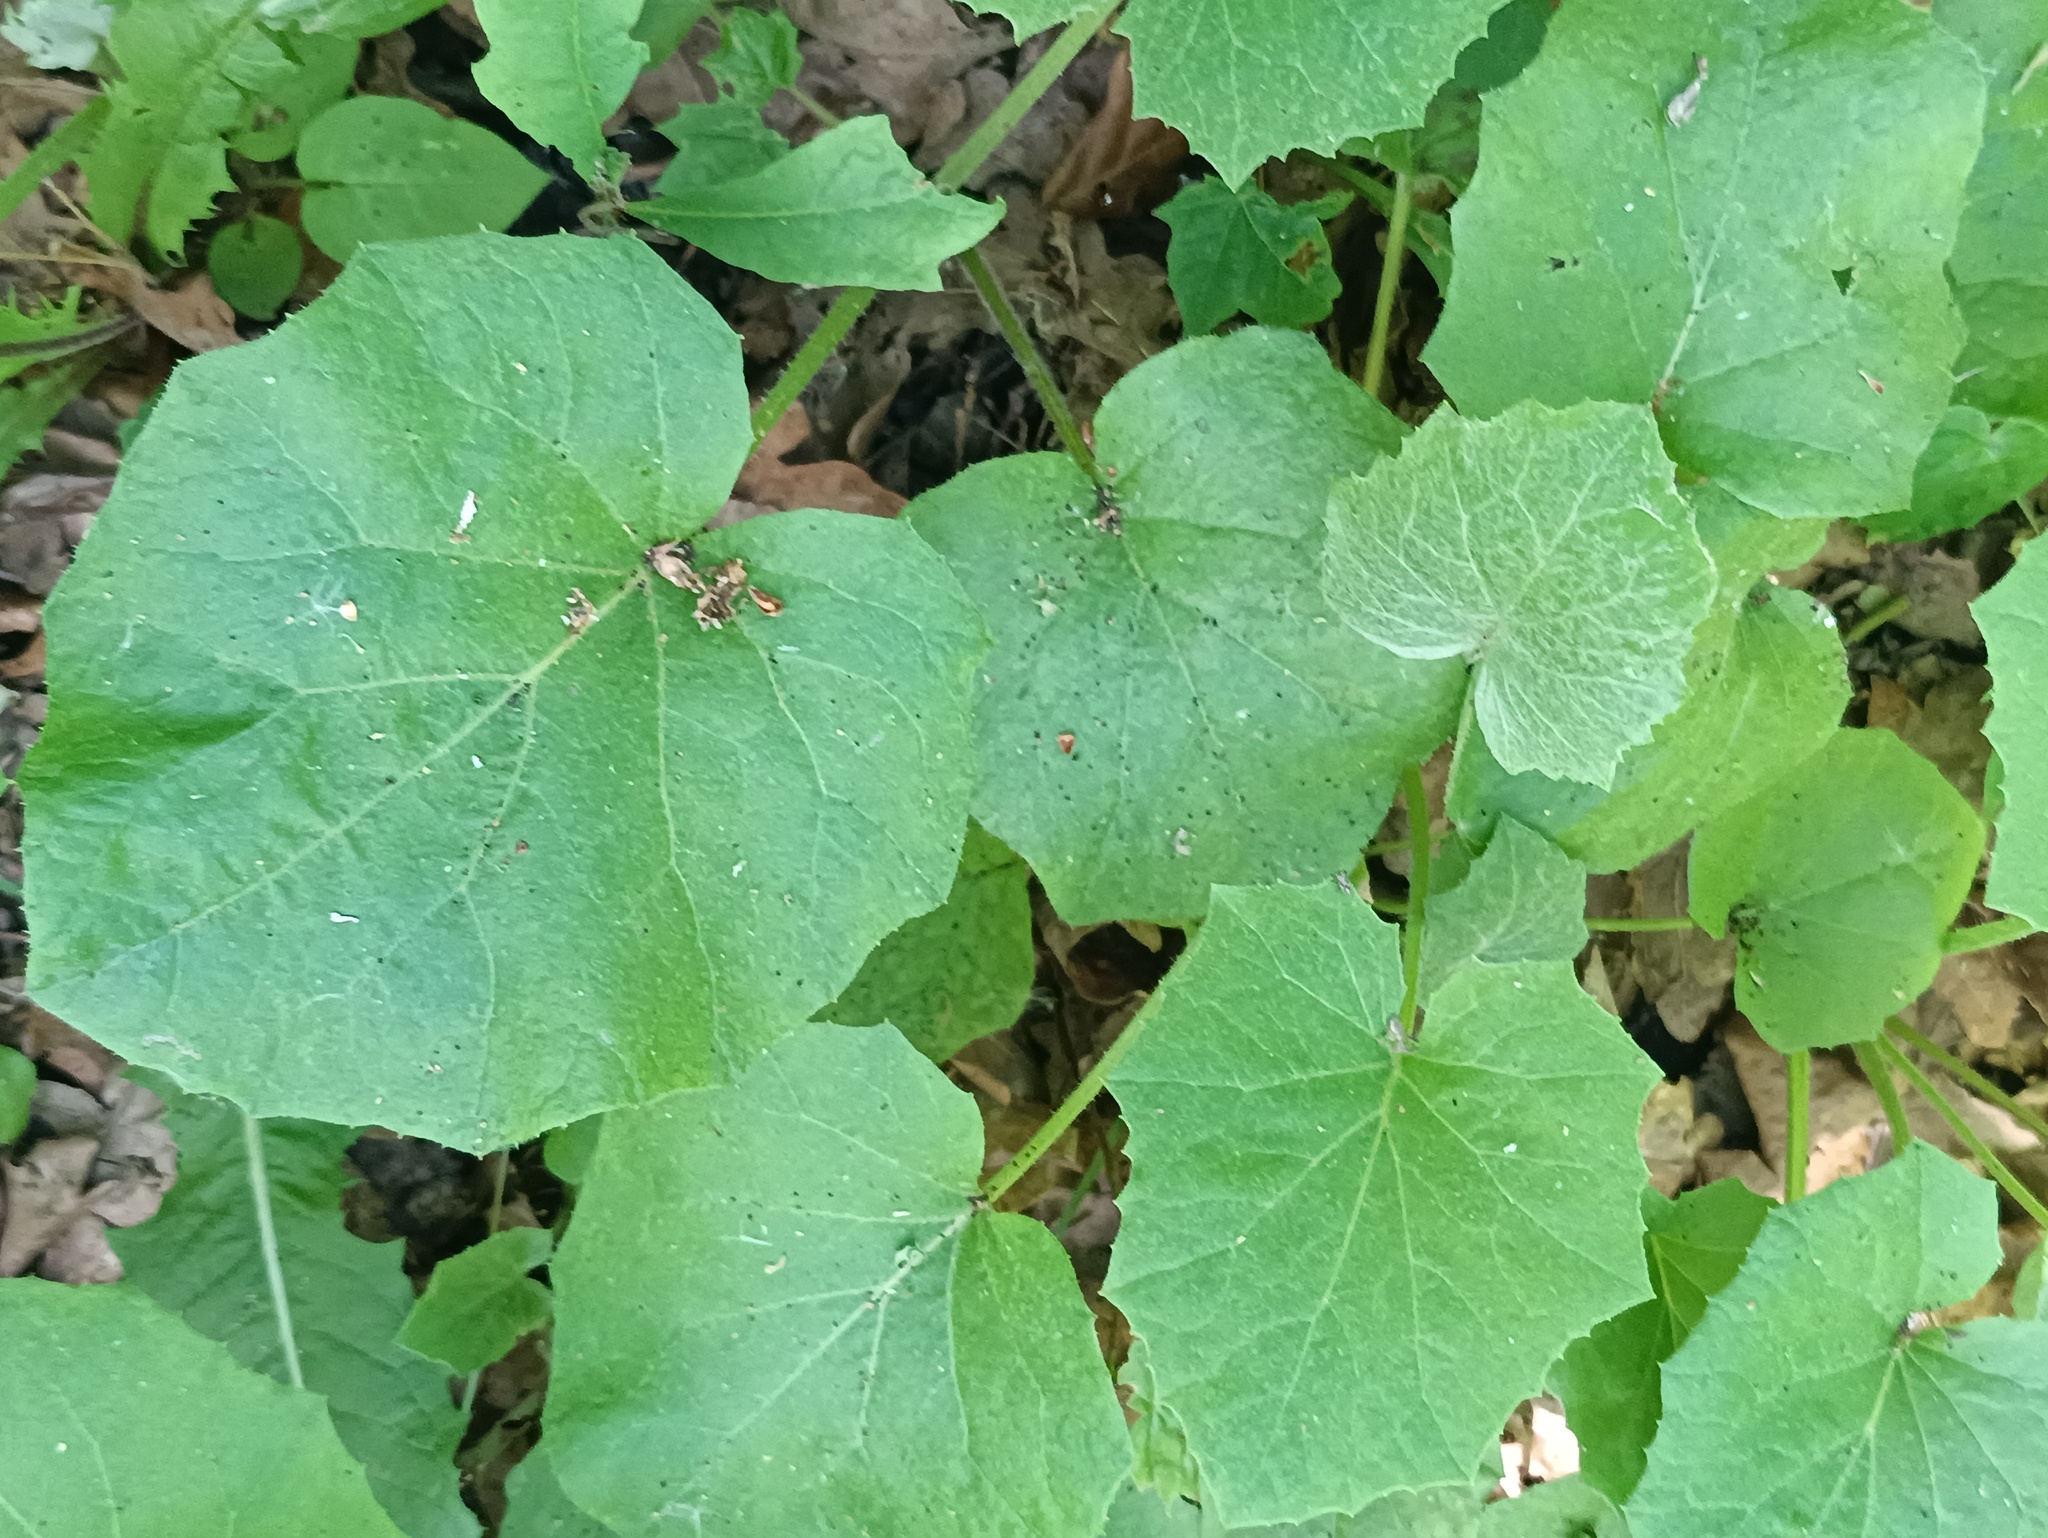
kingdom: Plantae
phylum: Tracheophyta
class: Magnoliopsida
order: Asterales
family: Asteraceae
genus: Tussilago
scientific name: Tussilago farfara
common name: Coltsfoot
